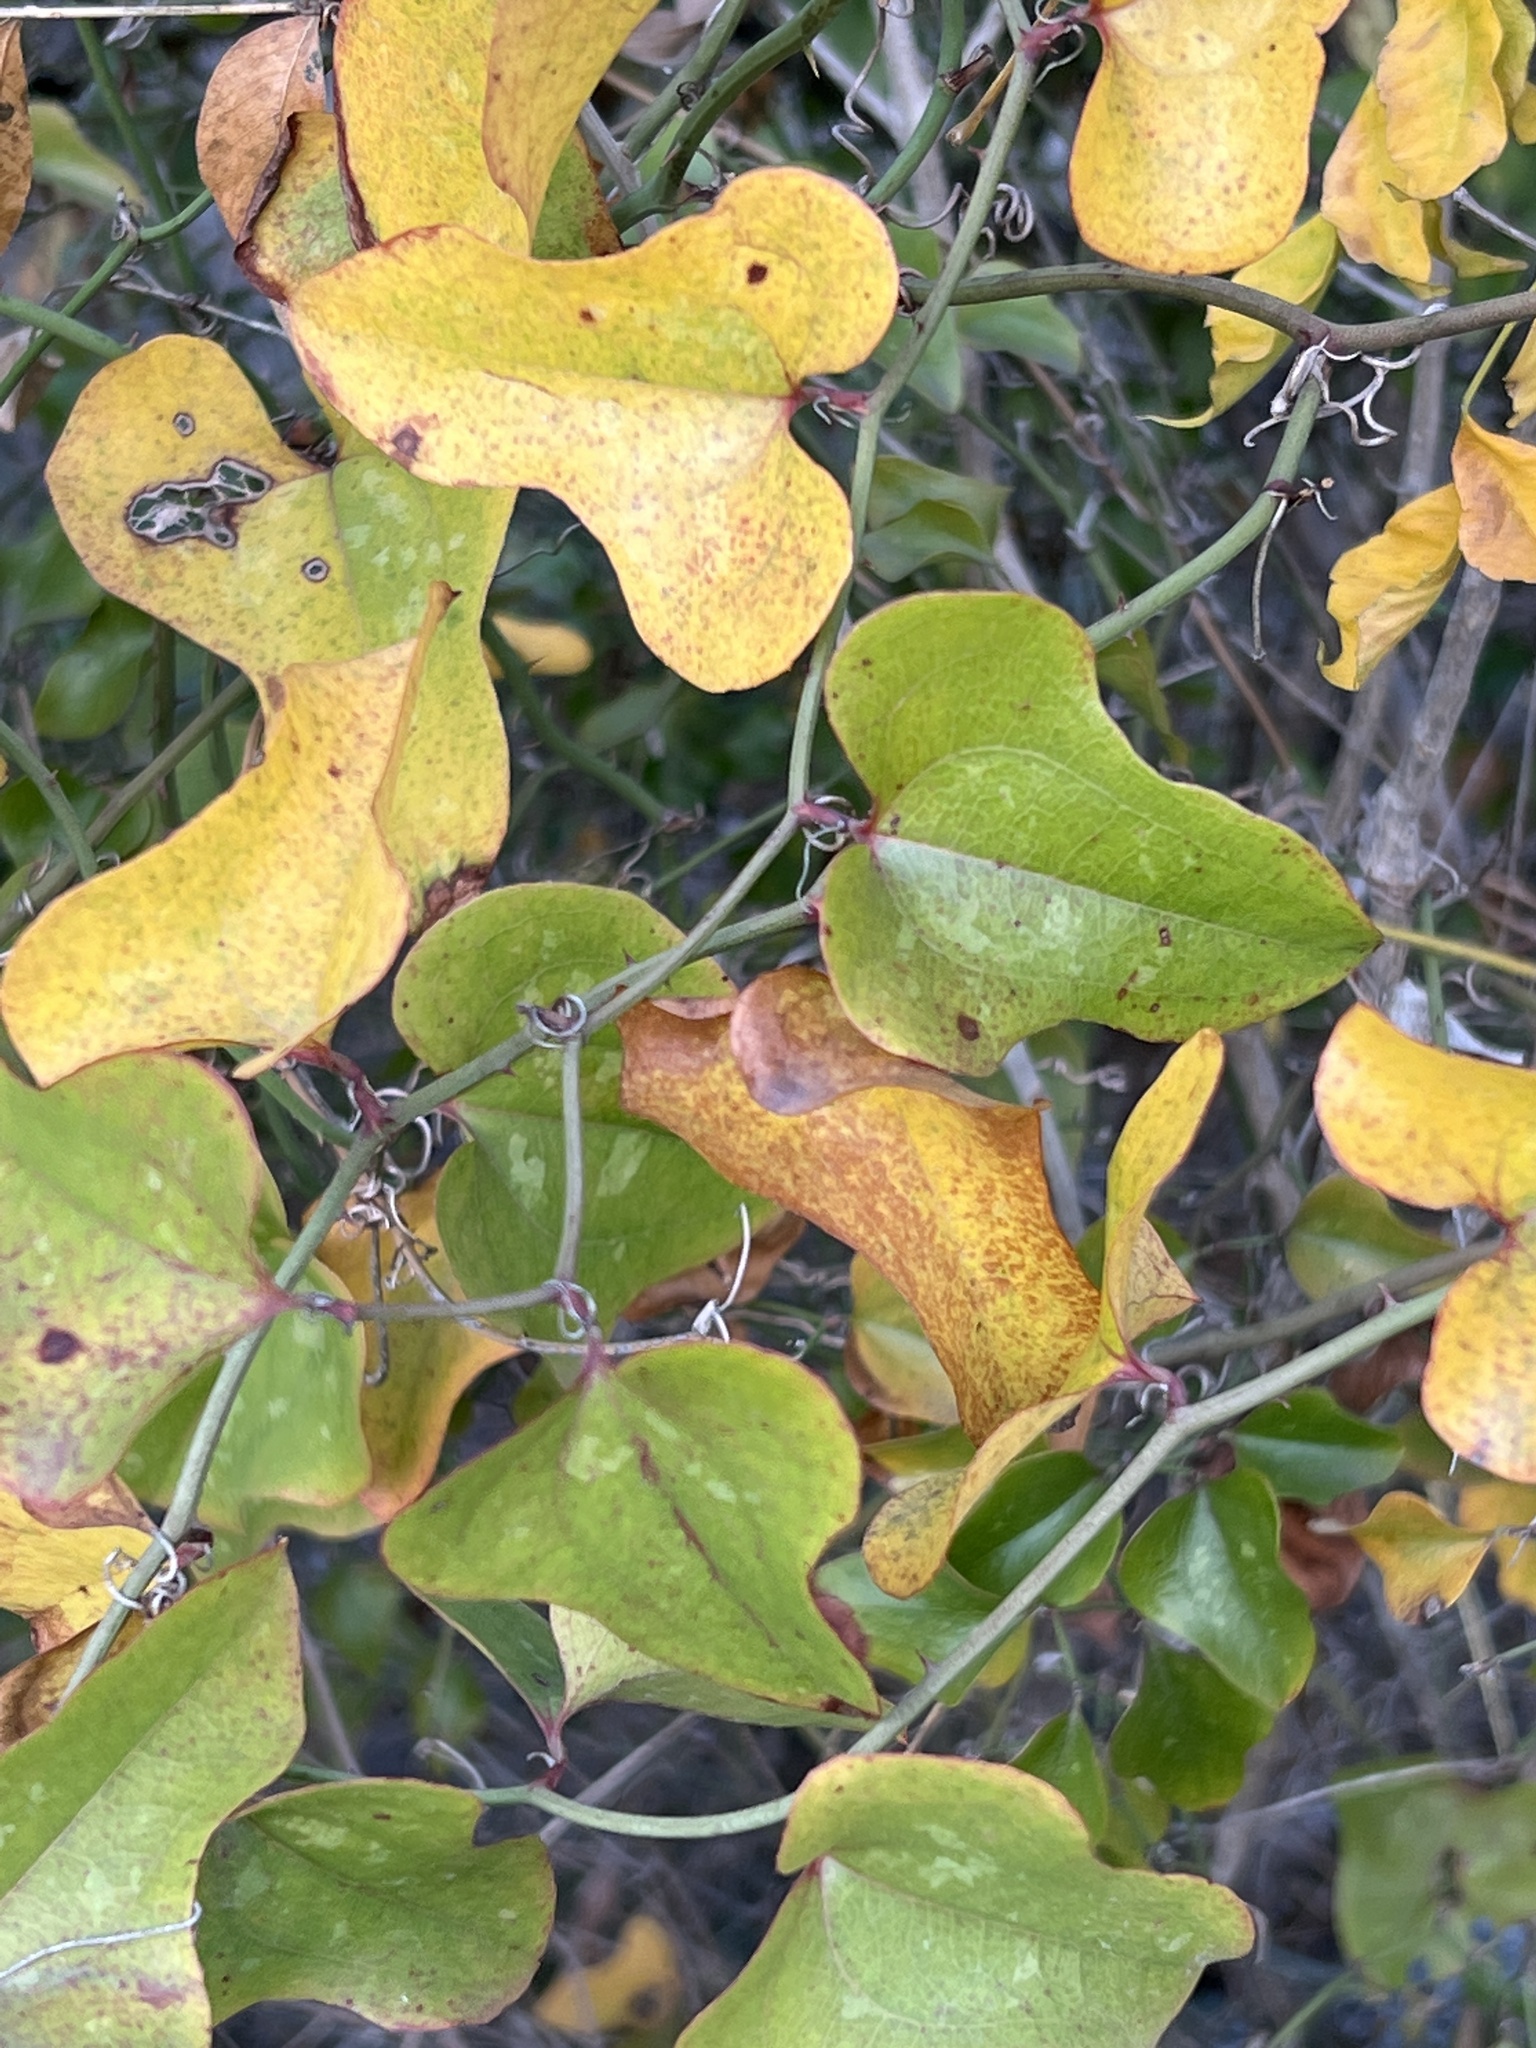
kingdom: Plantae
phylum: Tracheophyta
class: Liliopsida
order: Liliales
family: Smilacaceae
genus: Smilax
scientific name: Smilax bona-nox
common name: Catbrier
